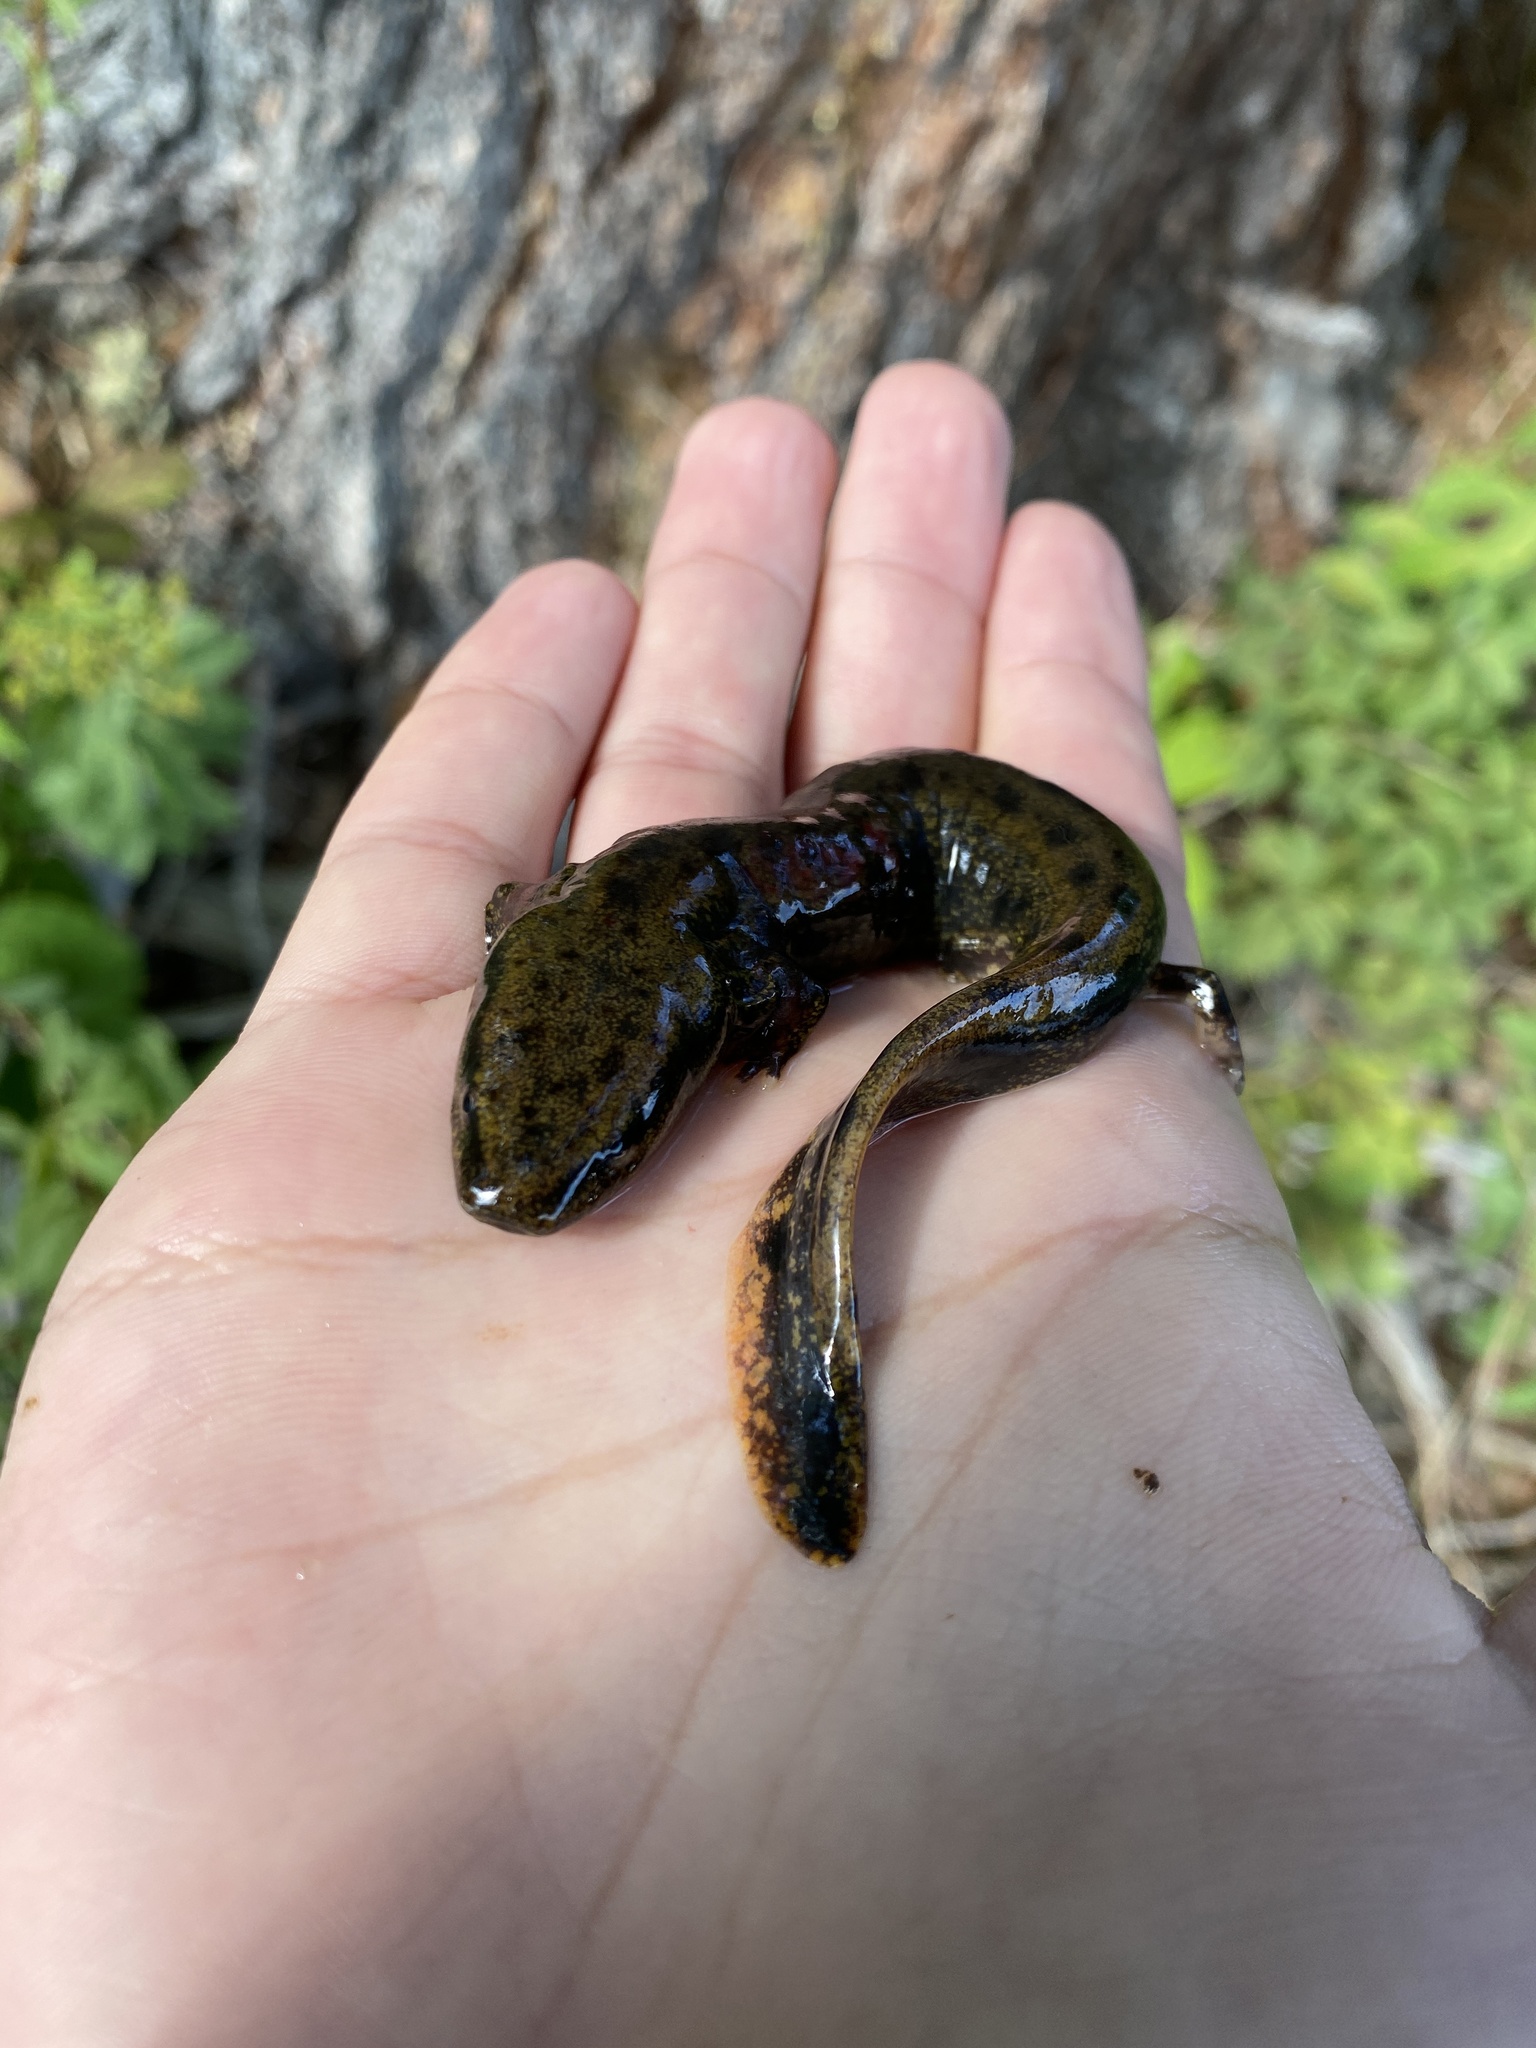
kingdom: Animalia
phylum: Chordata
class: Amphibia
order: Caudata
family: Proteidae
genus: Necturus
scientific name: Necturus maculosus
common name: Mudpuppy
